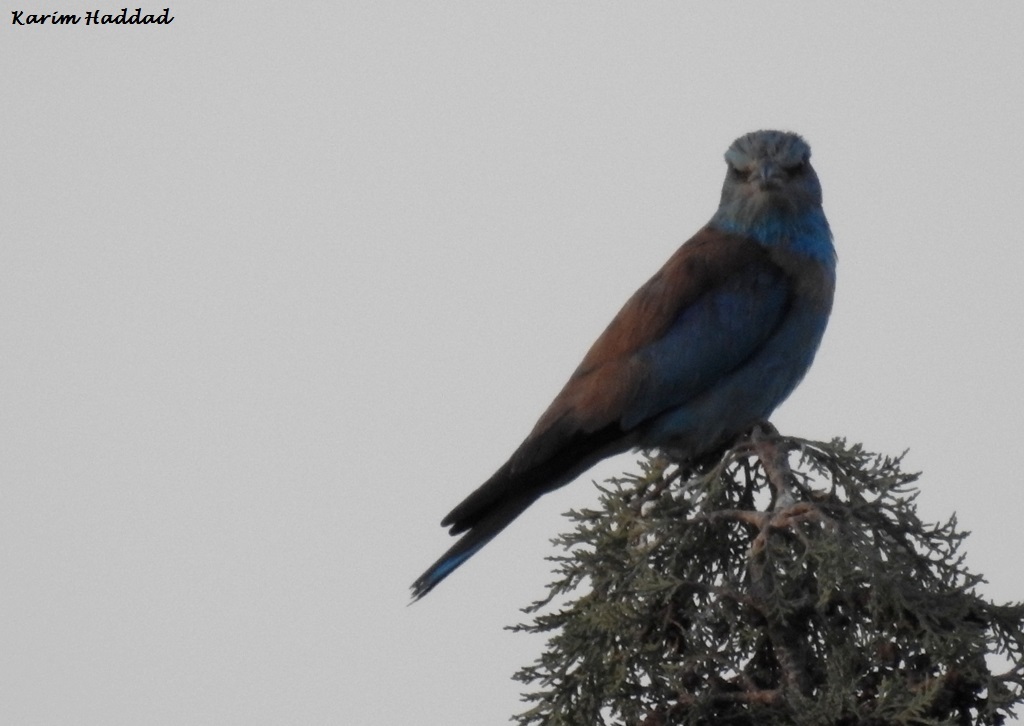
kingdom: Animalia
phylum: Chordata
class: Aves
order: Coraciiformes
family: Coraciidae
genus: Coracias
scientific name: Coracias garrulus
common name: European roller
